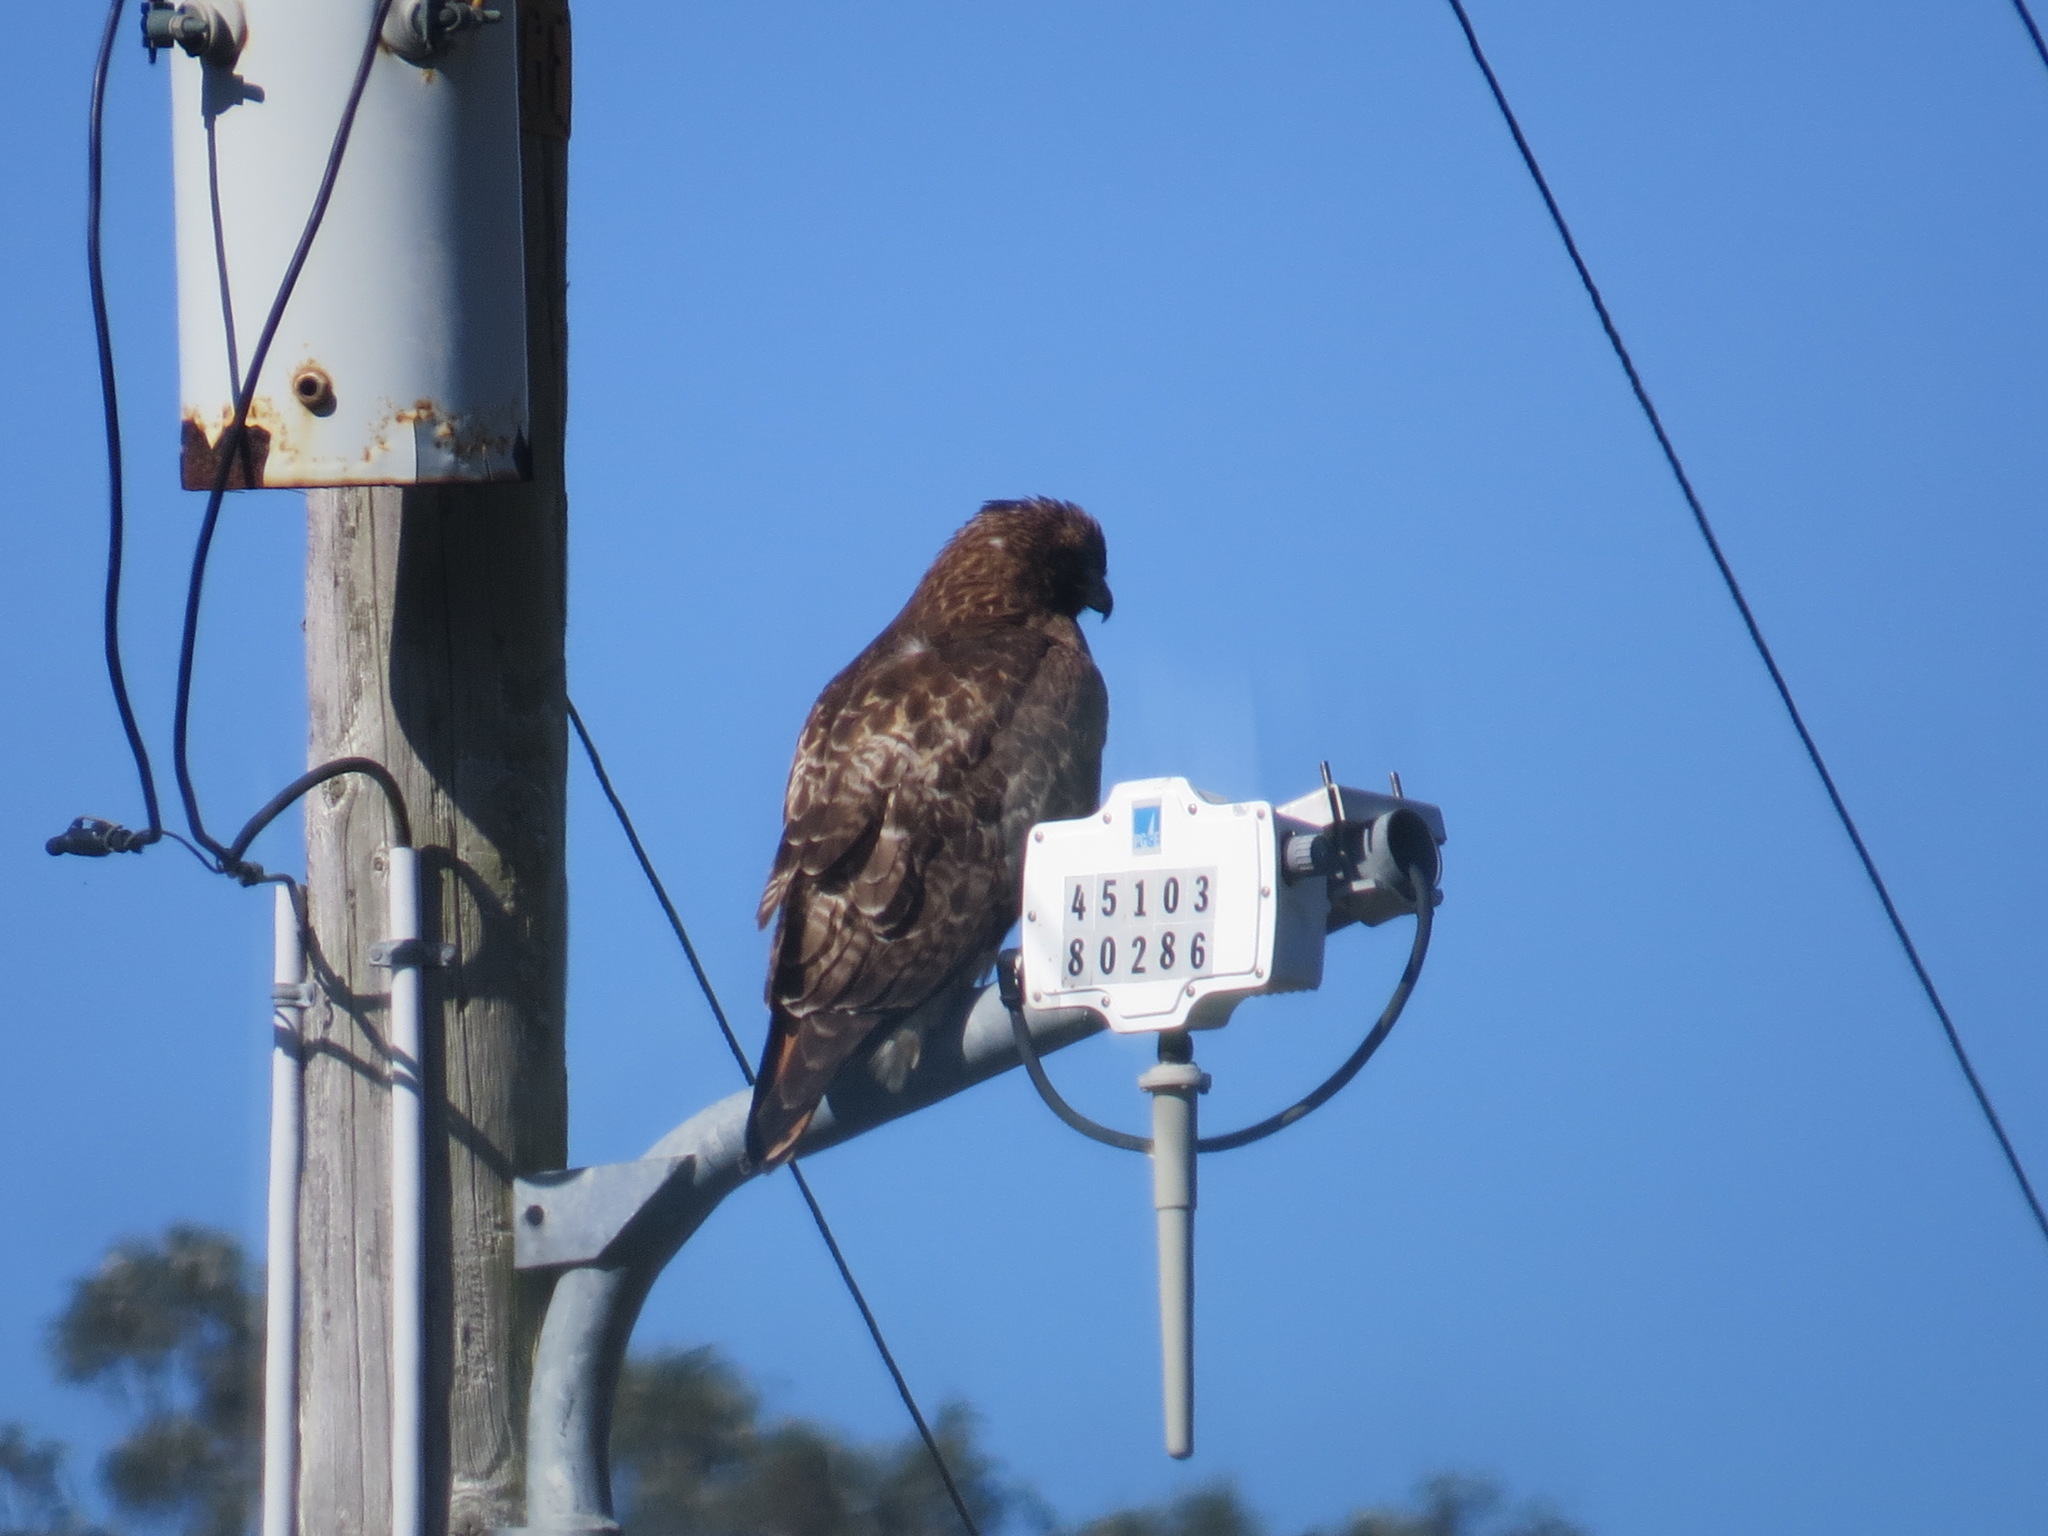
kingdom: Animalia
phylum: Chordata
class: Aves
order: Accipitriformes
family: Accipitridae
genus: Buteo
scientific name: Buteo jamaicensis
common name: Red-tailed hawk
